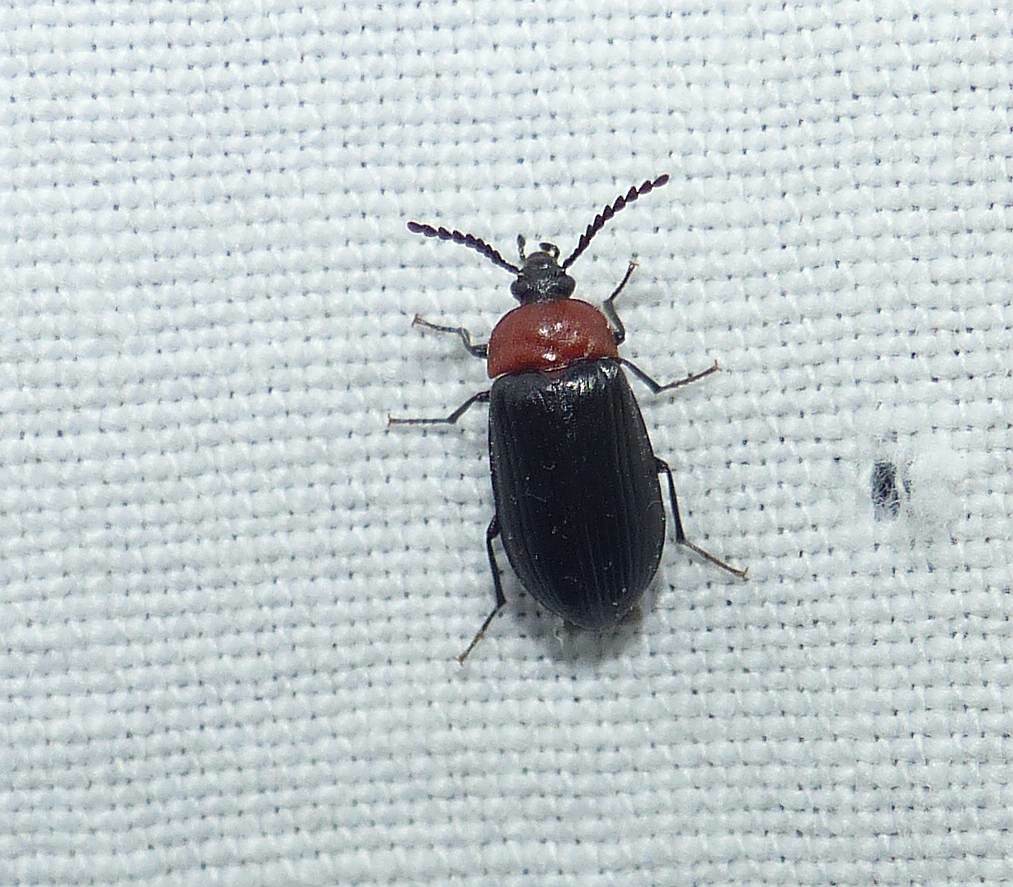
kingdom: Animalia
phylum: Arthropoda
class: Insecta
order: Coleoptera
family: Tenebrionidae
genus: Chromatia
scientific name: Chromatia amoena
